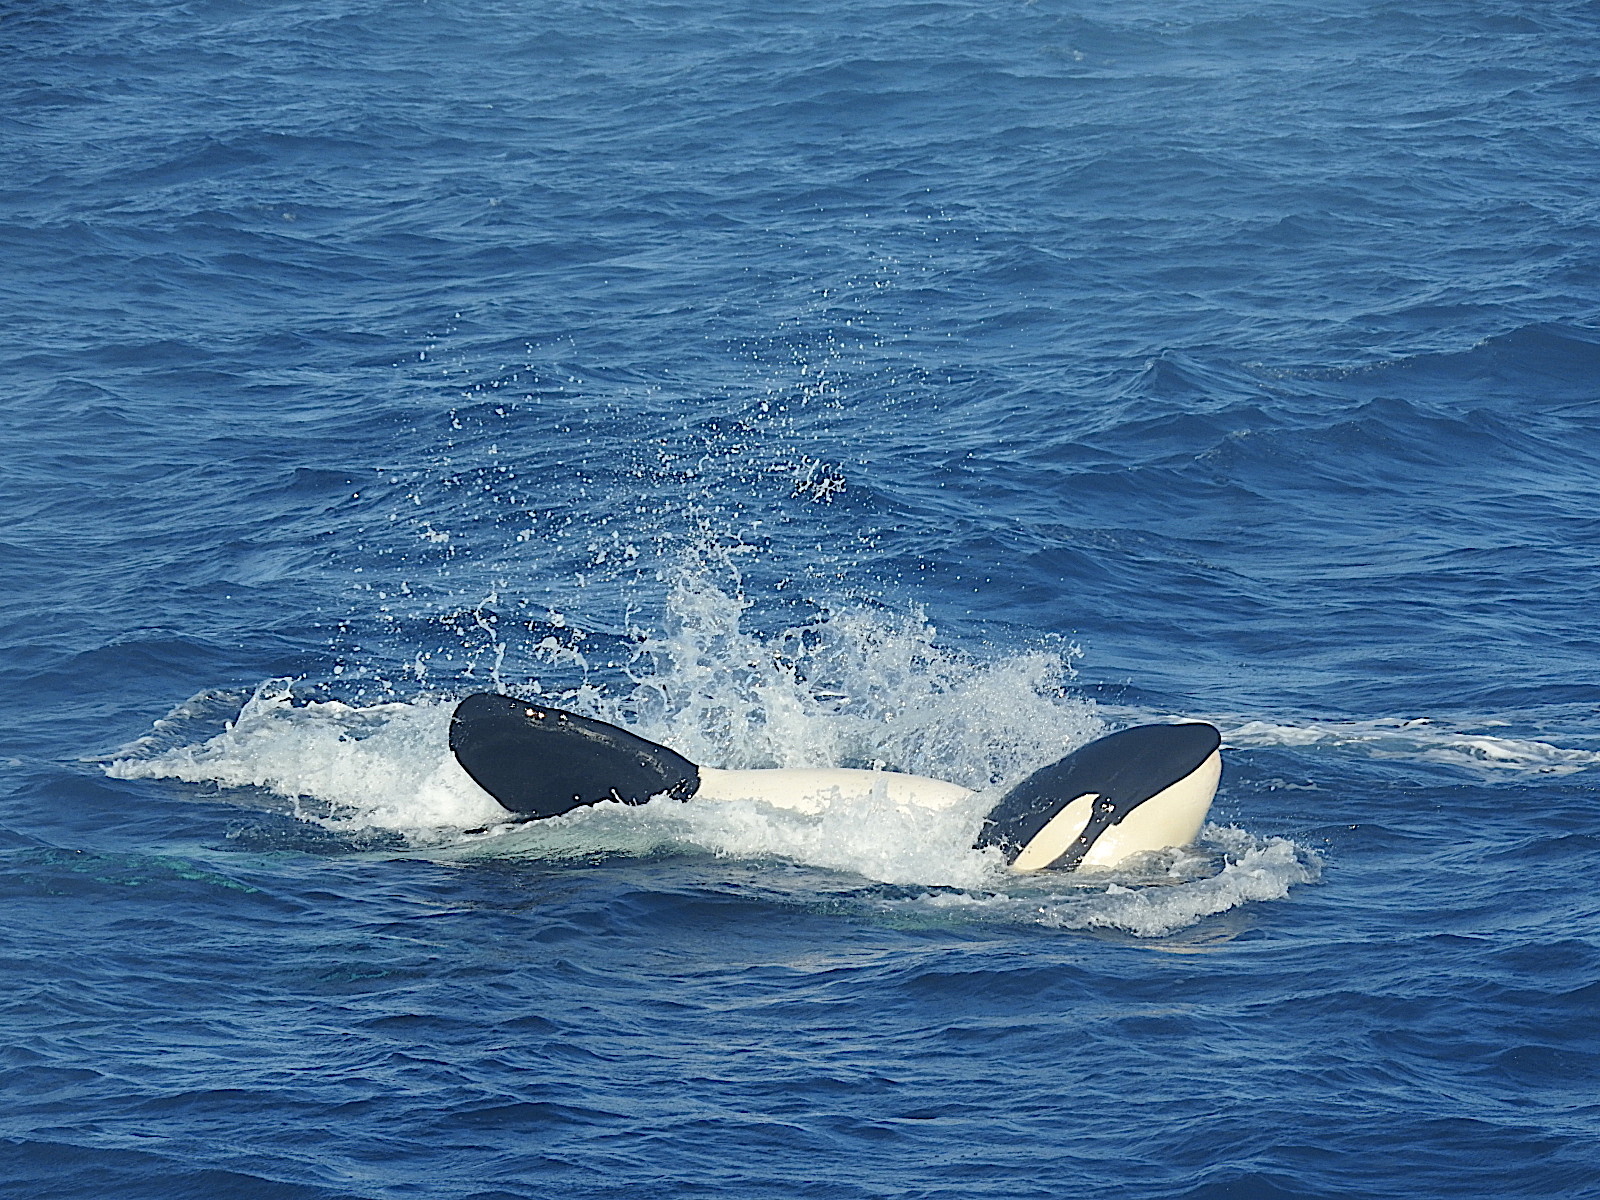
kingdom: Animalia
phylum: Chordata
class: Mammalia
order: Cetacea
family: Delphinidae
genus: Orcinus
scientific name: Orcinus orca
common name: Killer whale
